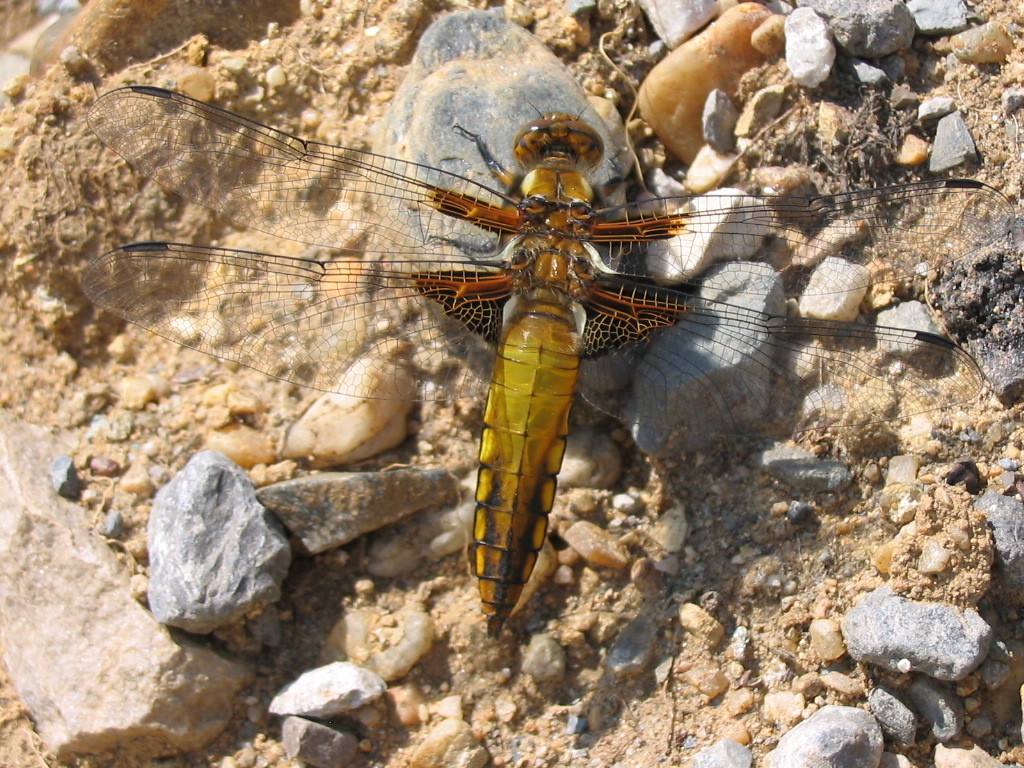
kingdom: Animalia
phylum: Arthropoda
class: Insecta
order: Odonata
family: Libellulidae
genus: Libellula
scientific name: Libellula depressa
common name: Broad-bodied chaser
